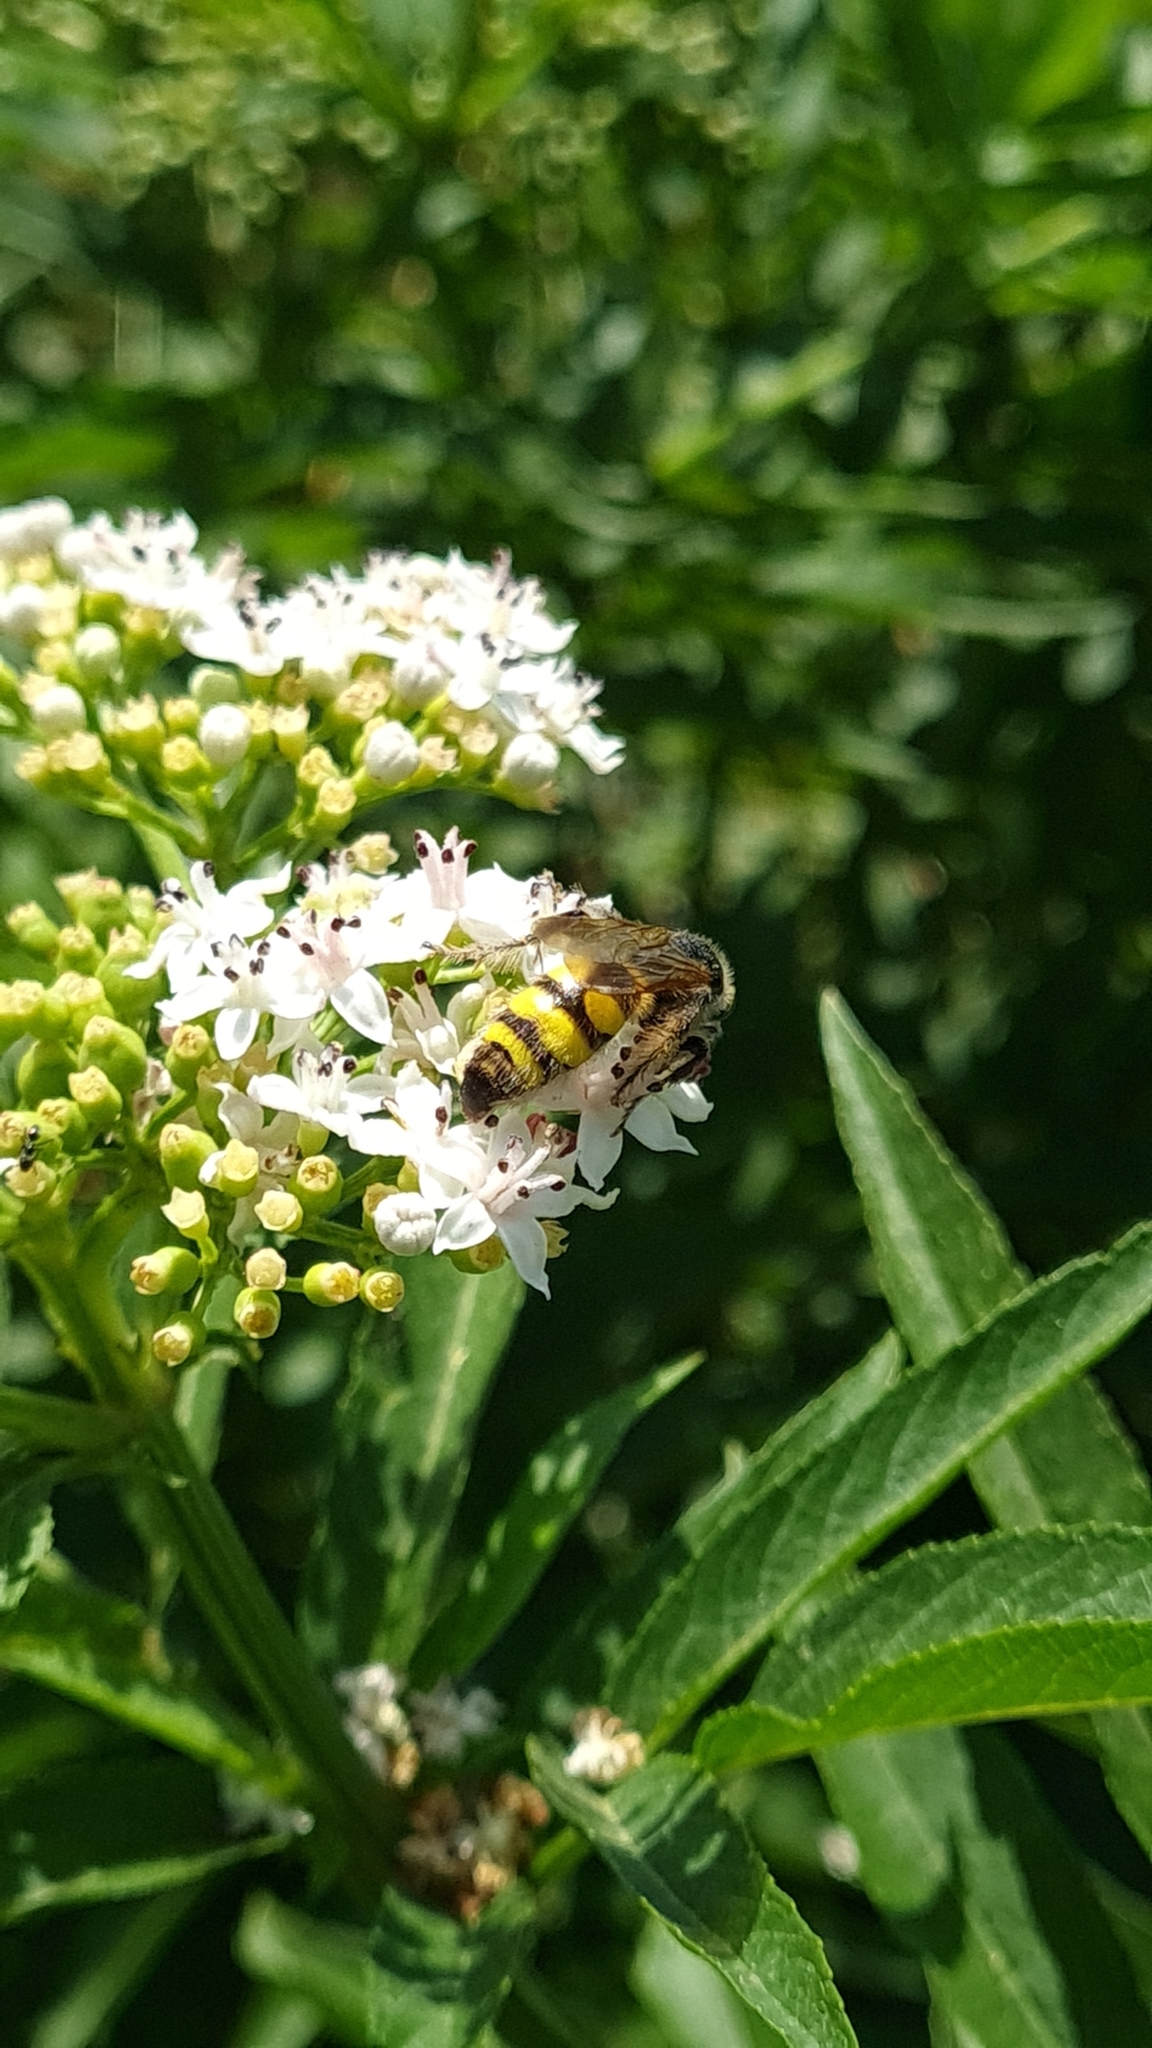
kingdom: Animalia
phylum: Arthropoda
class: Insecta
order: Hymenoptera
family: Vespidae
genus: Vespa
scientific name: Vespa sexmaculata
